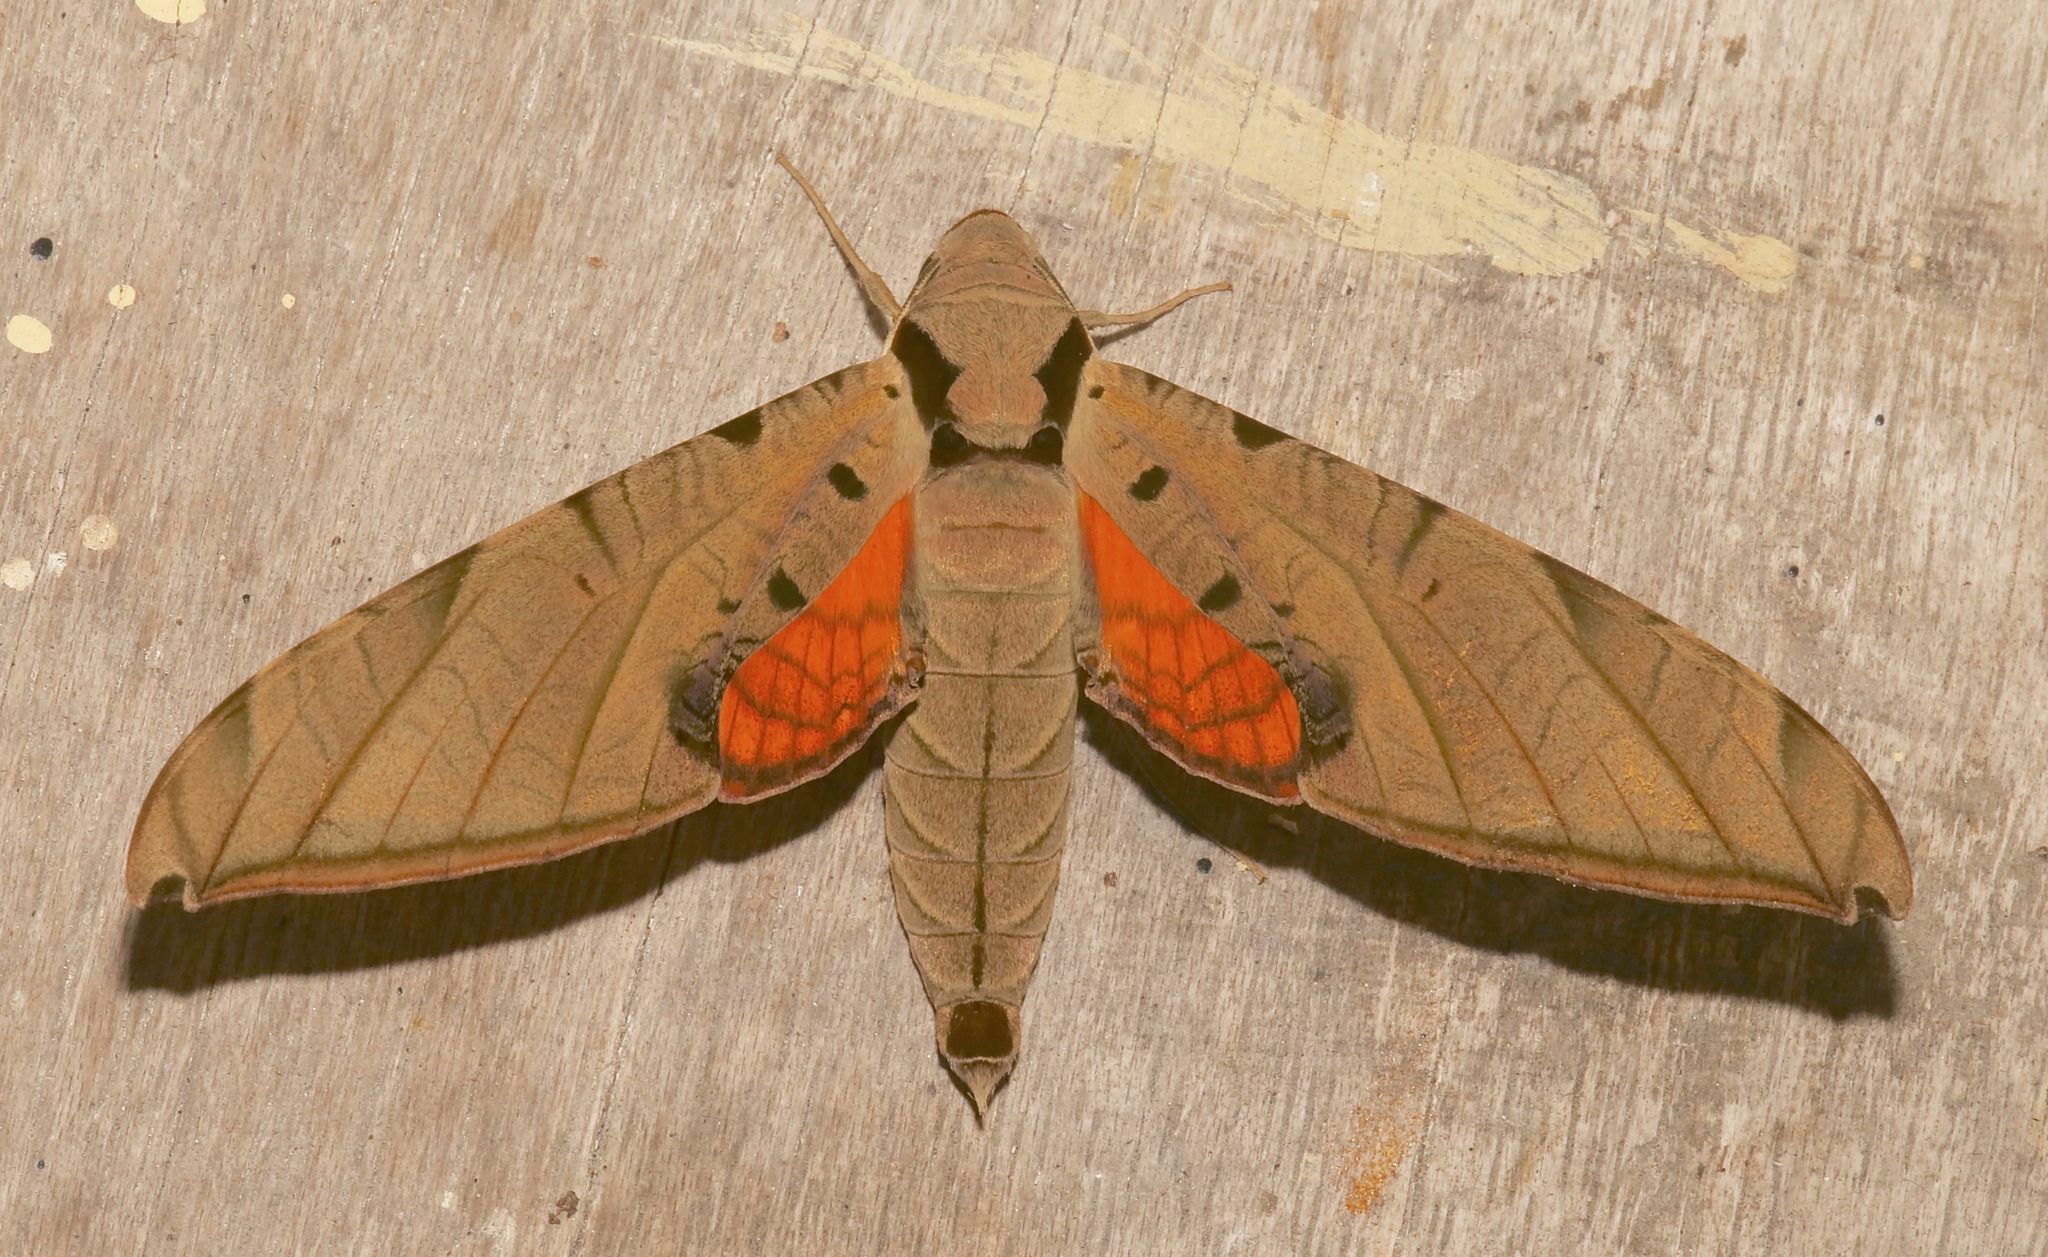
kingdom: Animalia
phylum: Arthropoda
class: Insecta
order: Lepidoptera
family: Sphingidae
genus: Protambulyx
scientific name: Protambulyx strigilis
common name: Streaked sphinx
